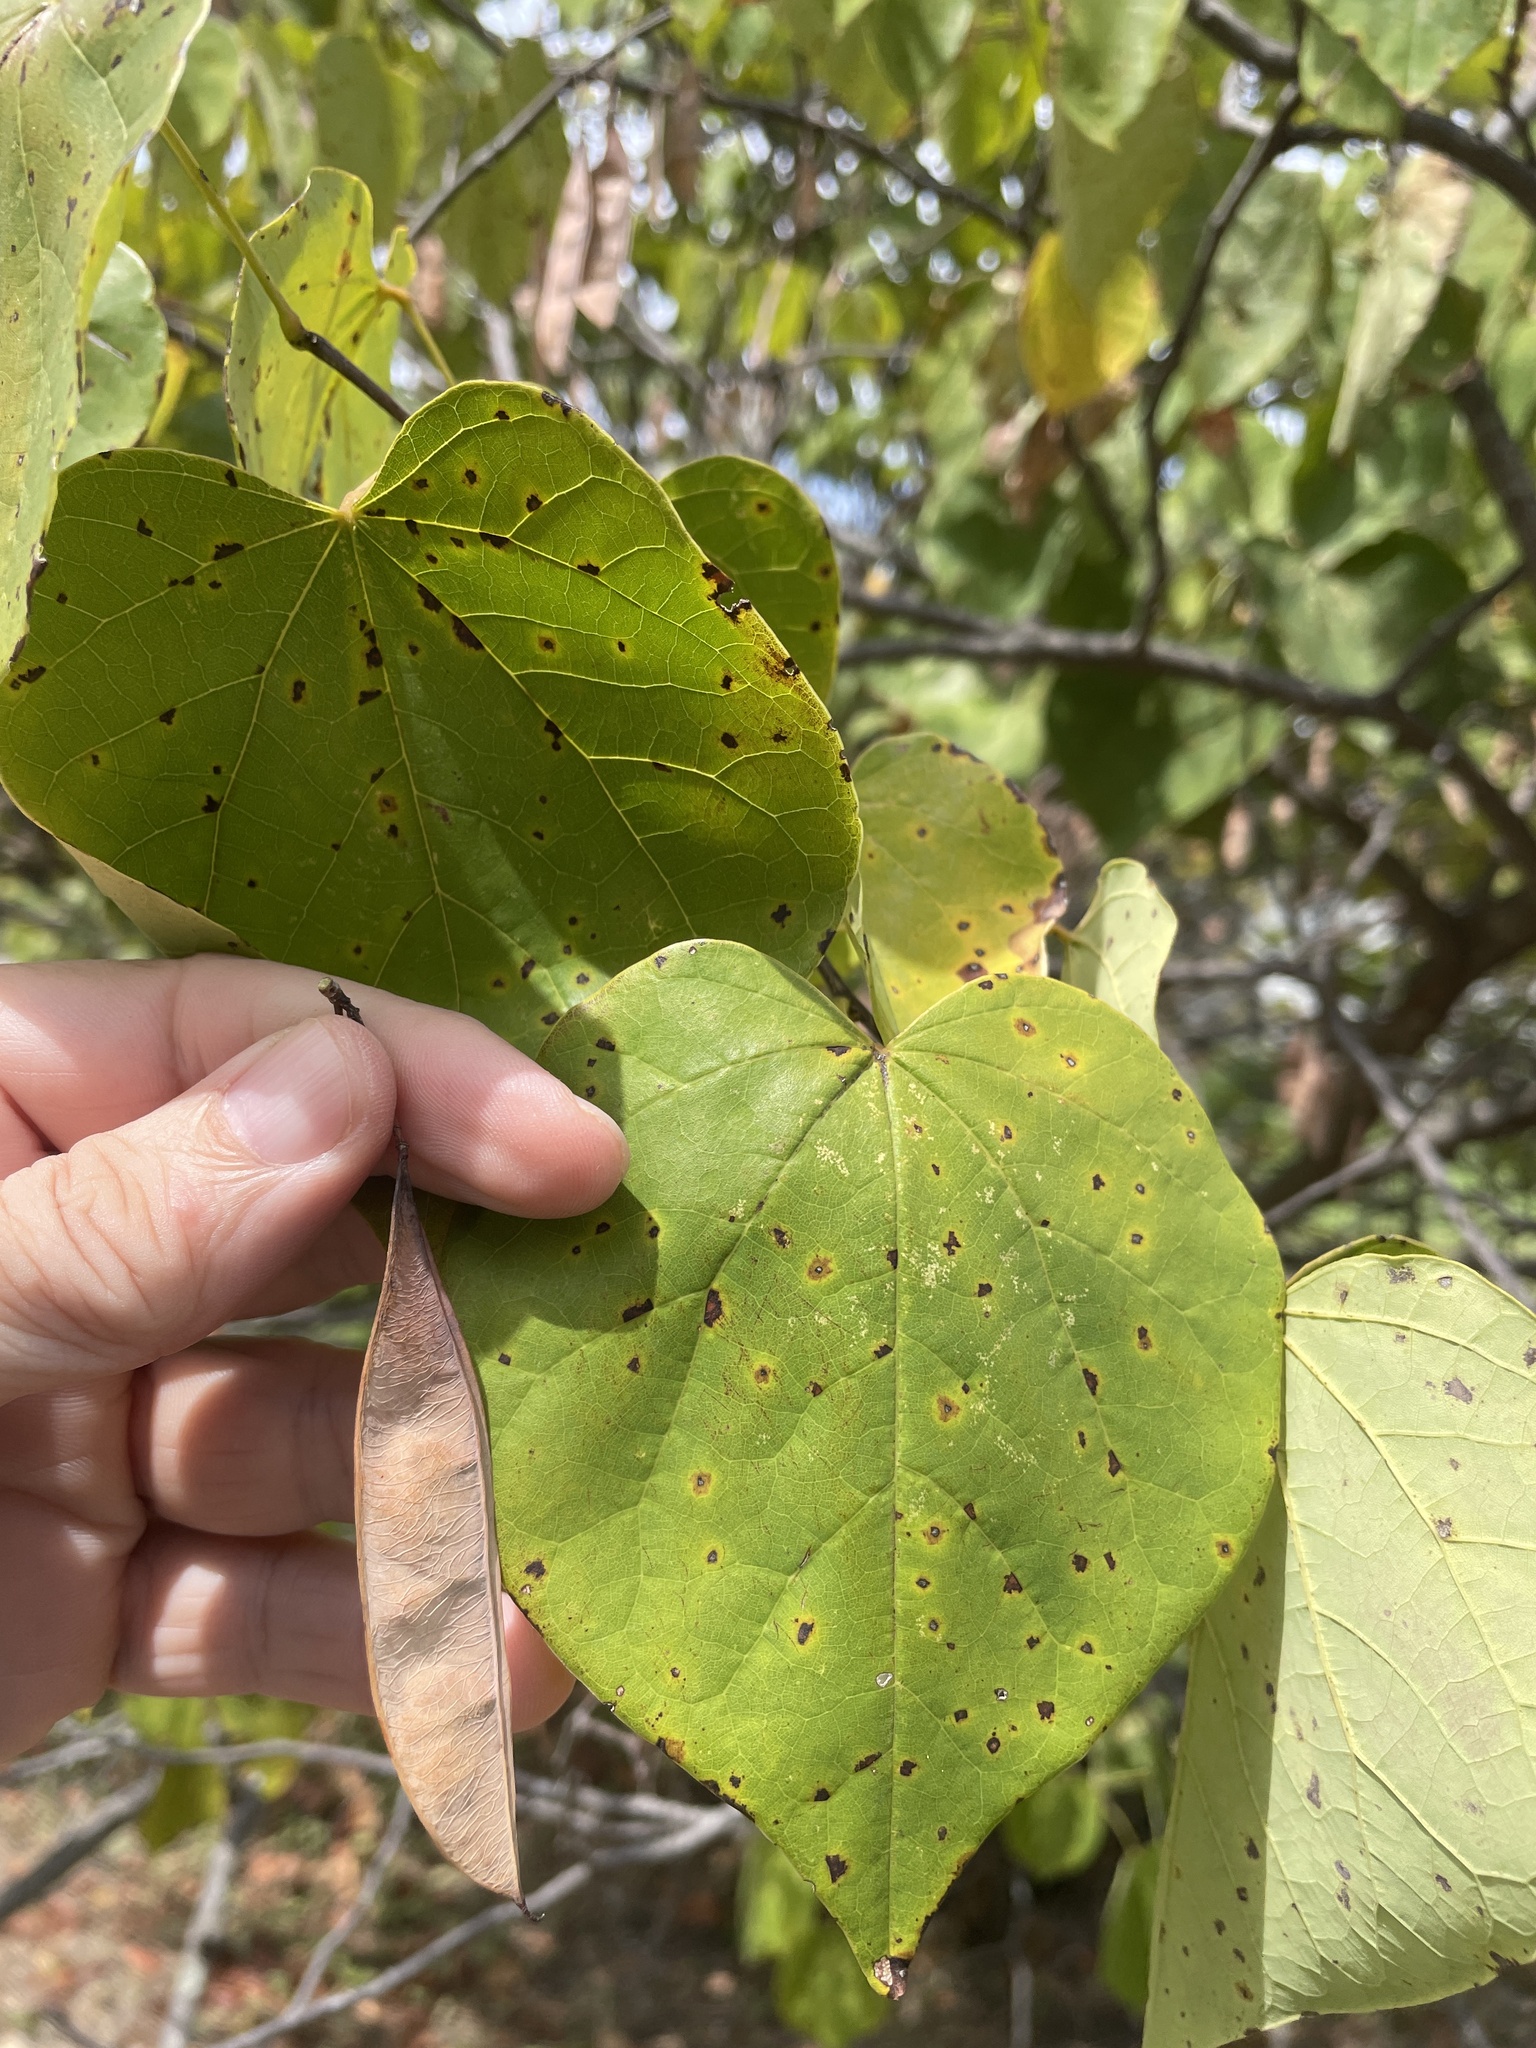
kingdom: Plantae
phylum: Tracheophyta
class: Magnoliopsida
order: Fabales
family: Fabaceae
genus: Cercis
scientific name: Cercis canadensis
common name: Eastern redbud
